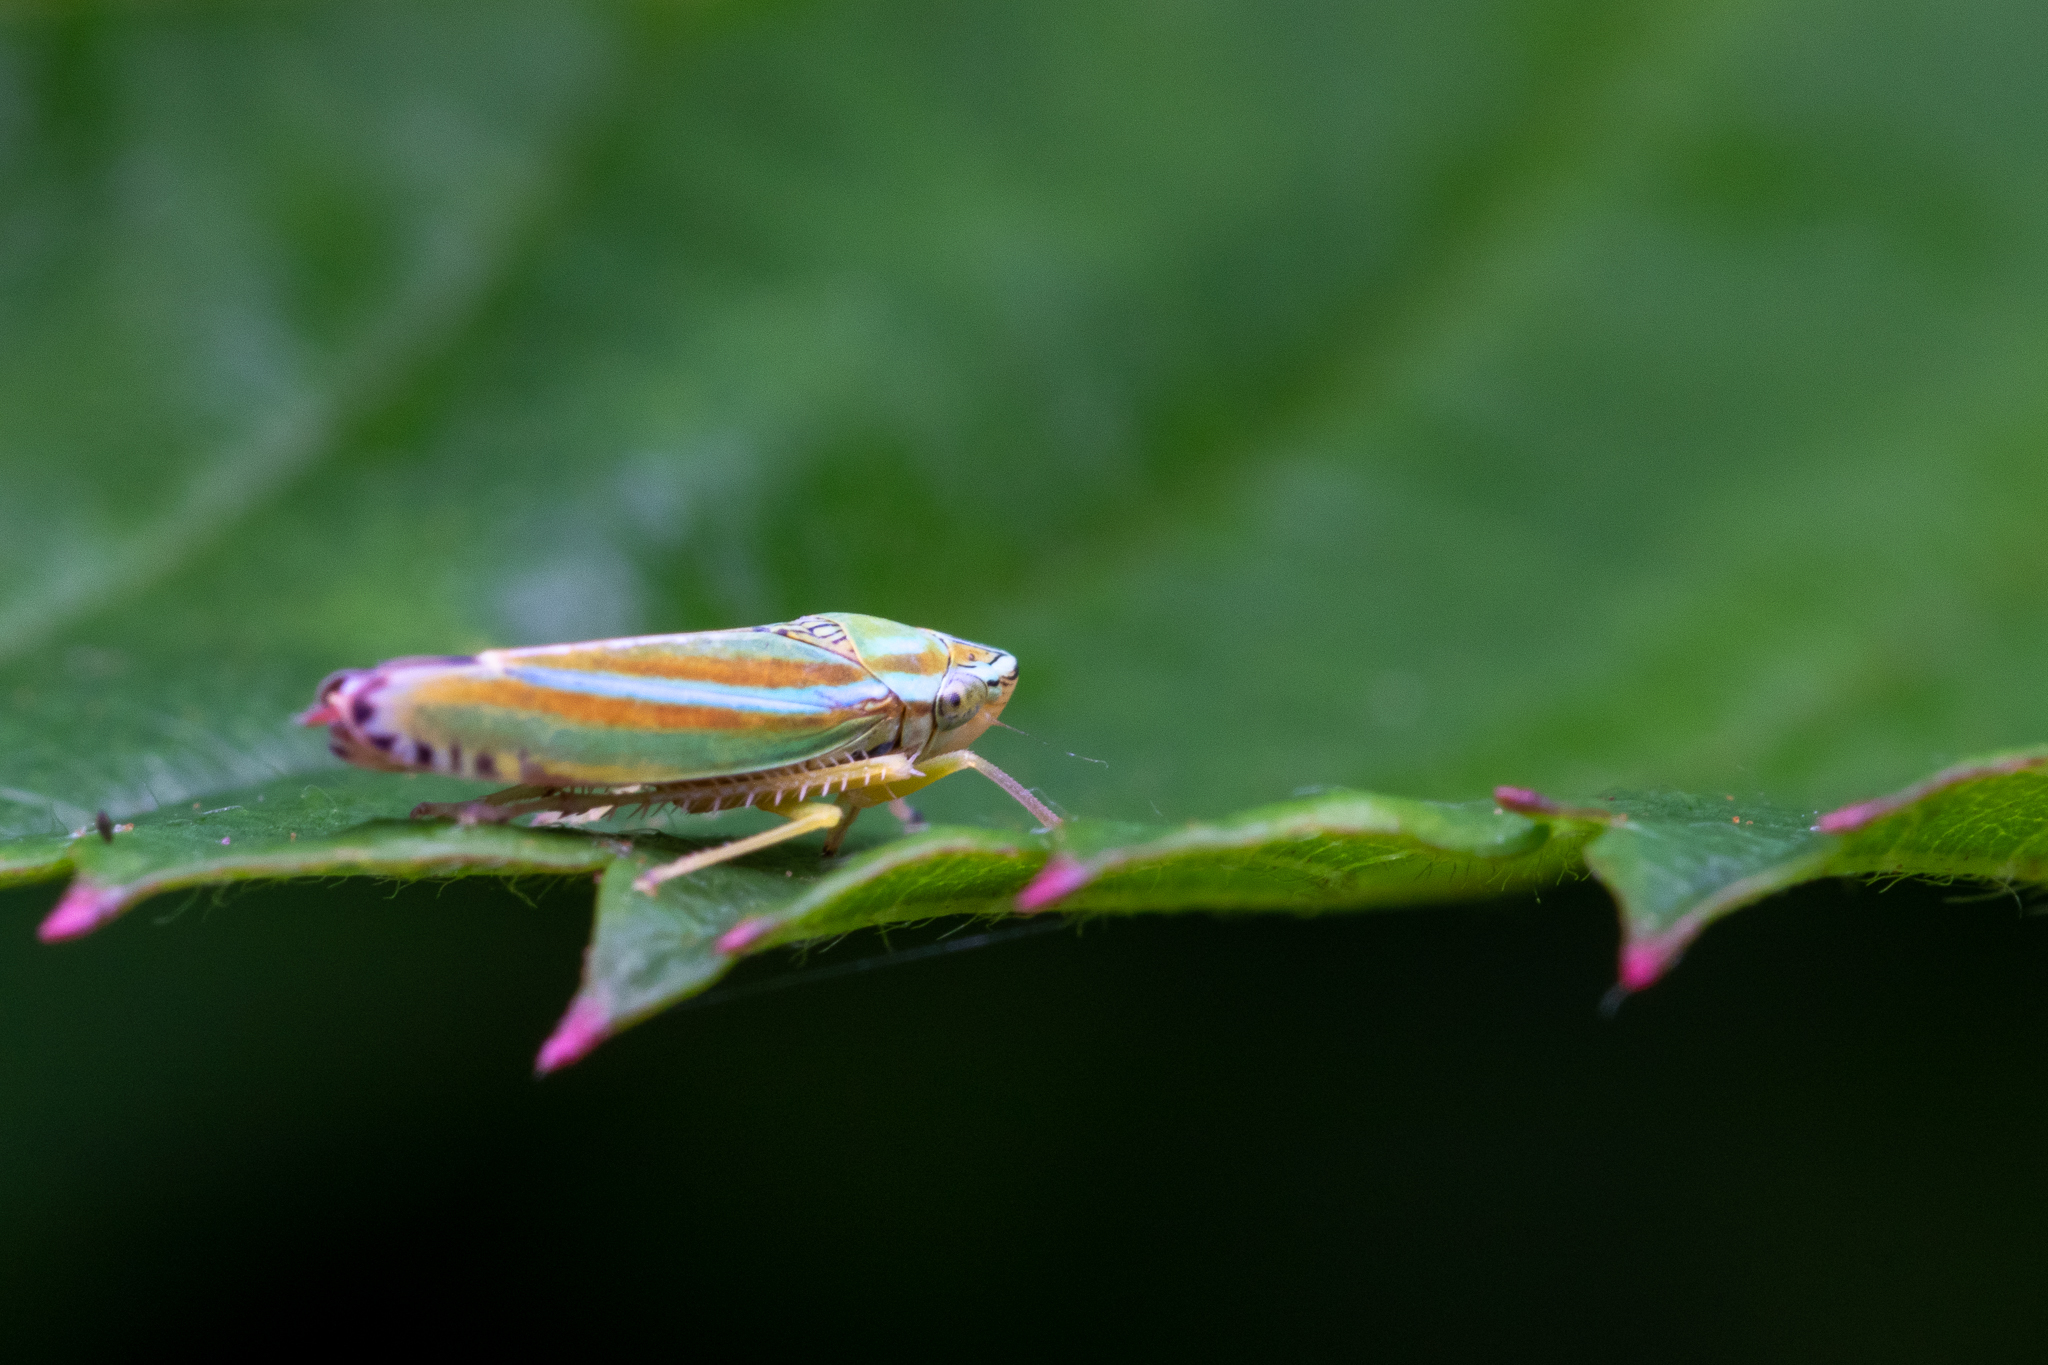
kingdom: Animalia
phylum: Arthropoda
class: Insecta
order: Hemiptera
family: Cicadellidae
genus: Graphocephala
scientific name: Graphocephala versuta
